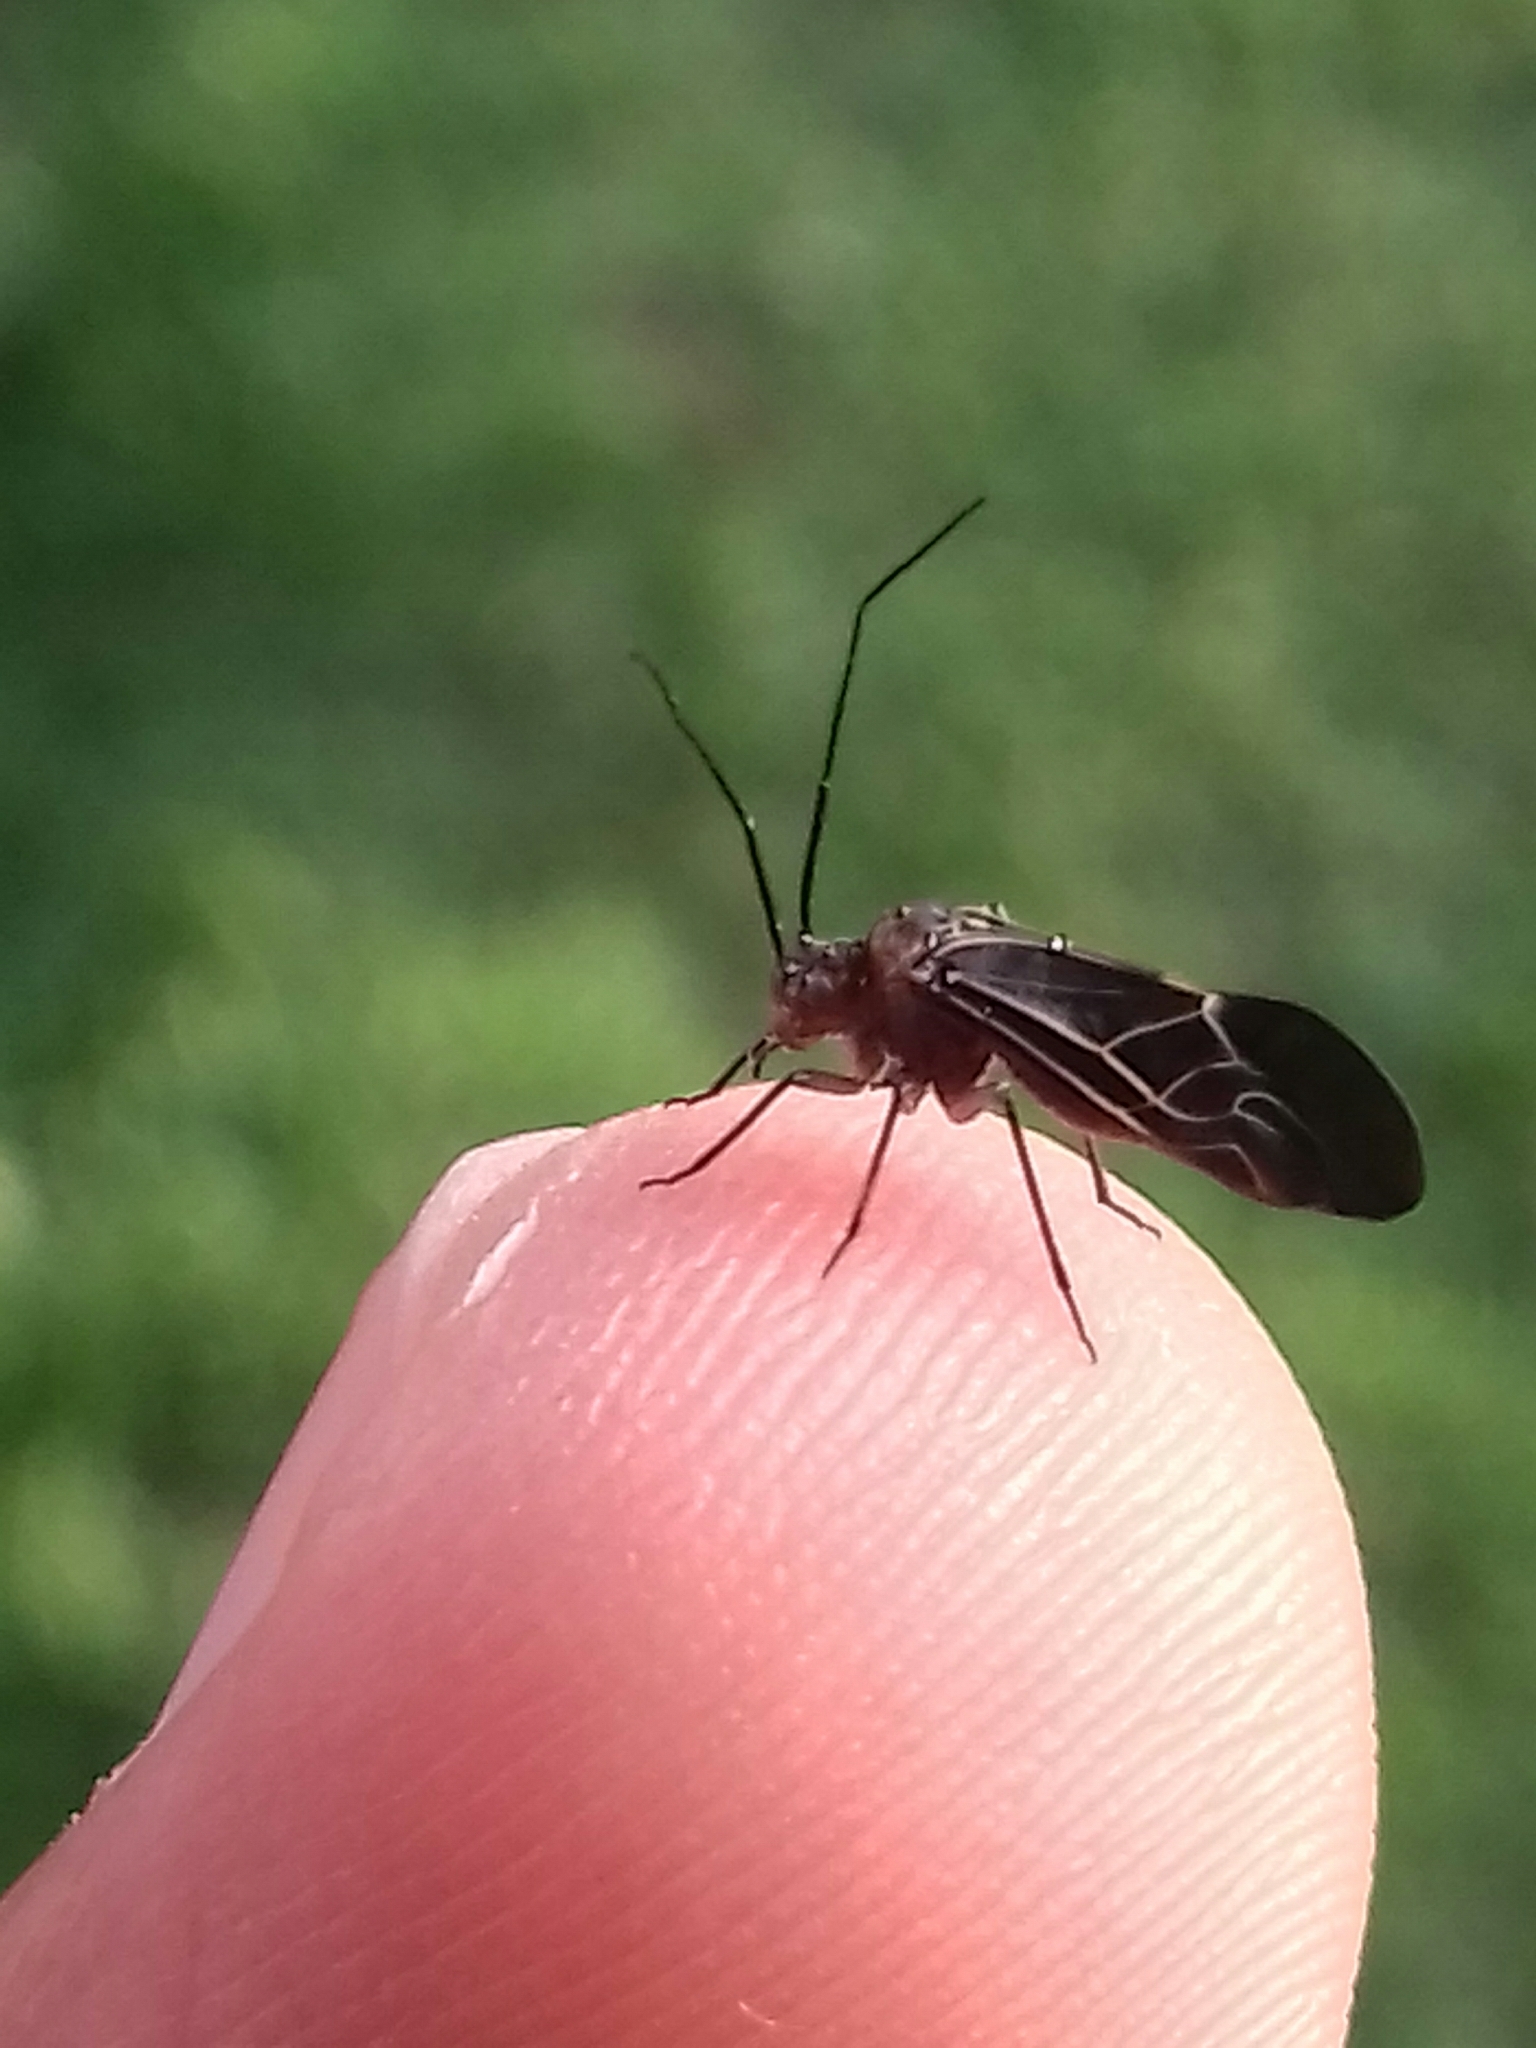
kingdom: Animalia
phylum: Arthropoda
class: Insecta
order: Psocodea
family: Psocidae
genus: Cerastipsocus
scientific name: Cerastipsocus venosus
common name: Tree cattle
